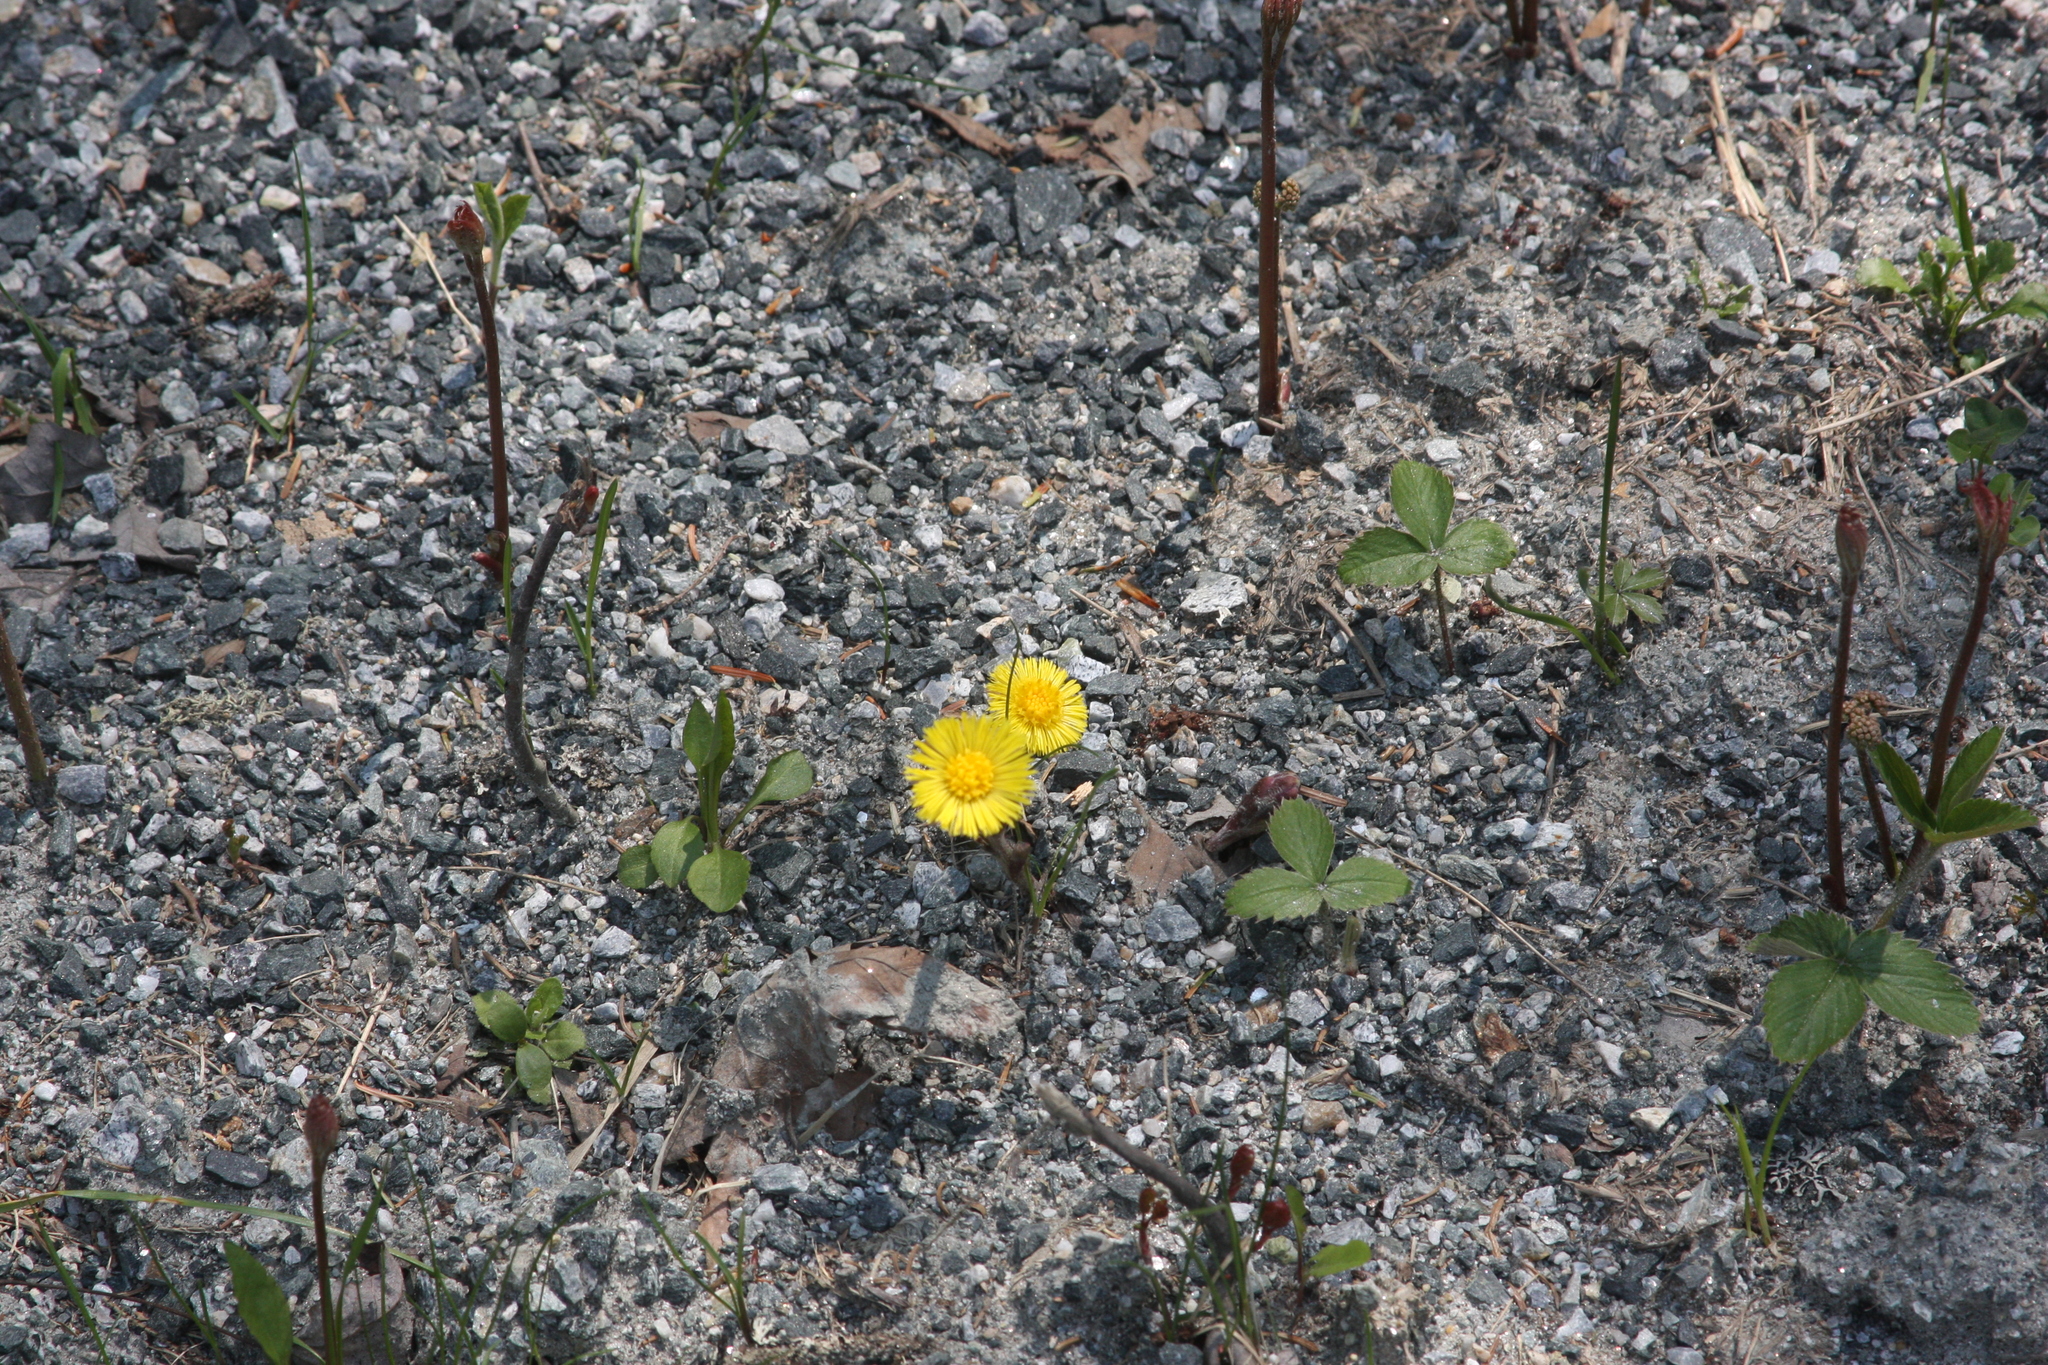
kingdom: Plantae
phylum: Tracheophyta
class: Magnoliopsida
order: Asterales
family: Asteraceae
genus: Tussilago
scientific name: Tussilago farfara
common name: Coltsfoot
